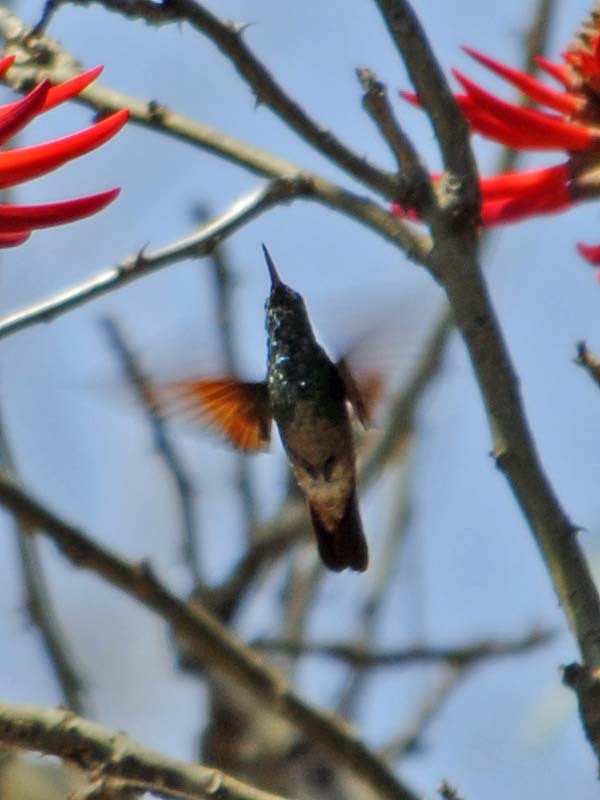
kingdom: Animalia
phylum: Chordata
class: Aves
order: Apodiformes
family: Trochilidae
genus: Saucerottia
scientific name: Saucerottia beryllina
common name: Berylline hummingbird
